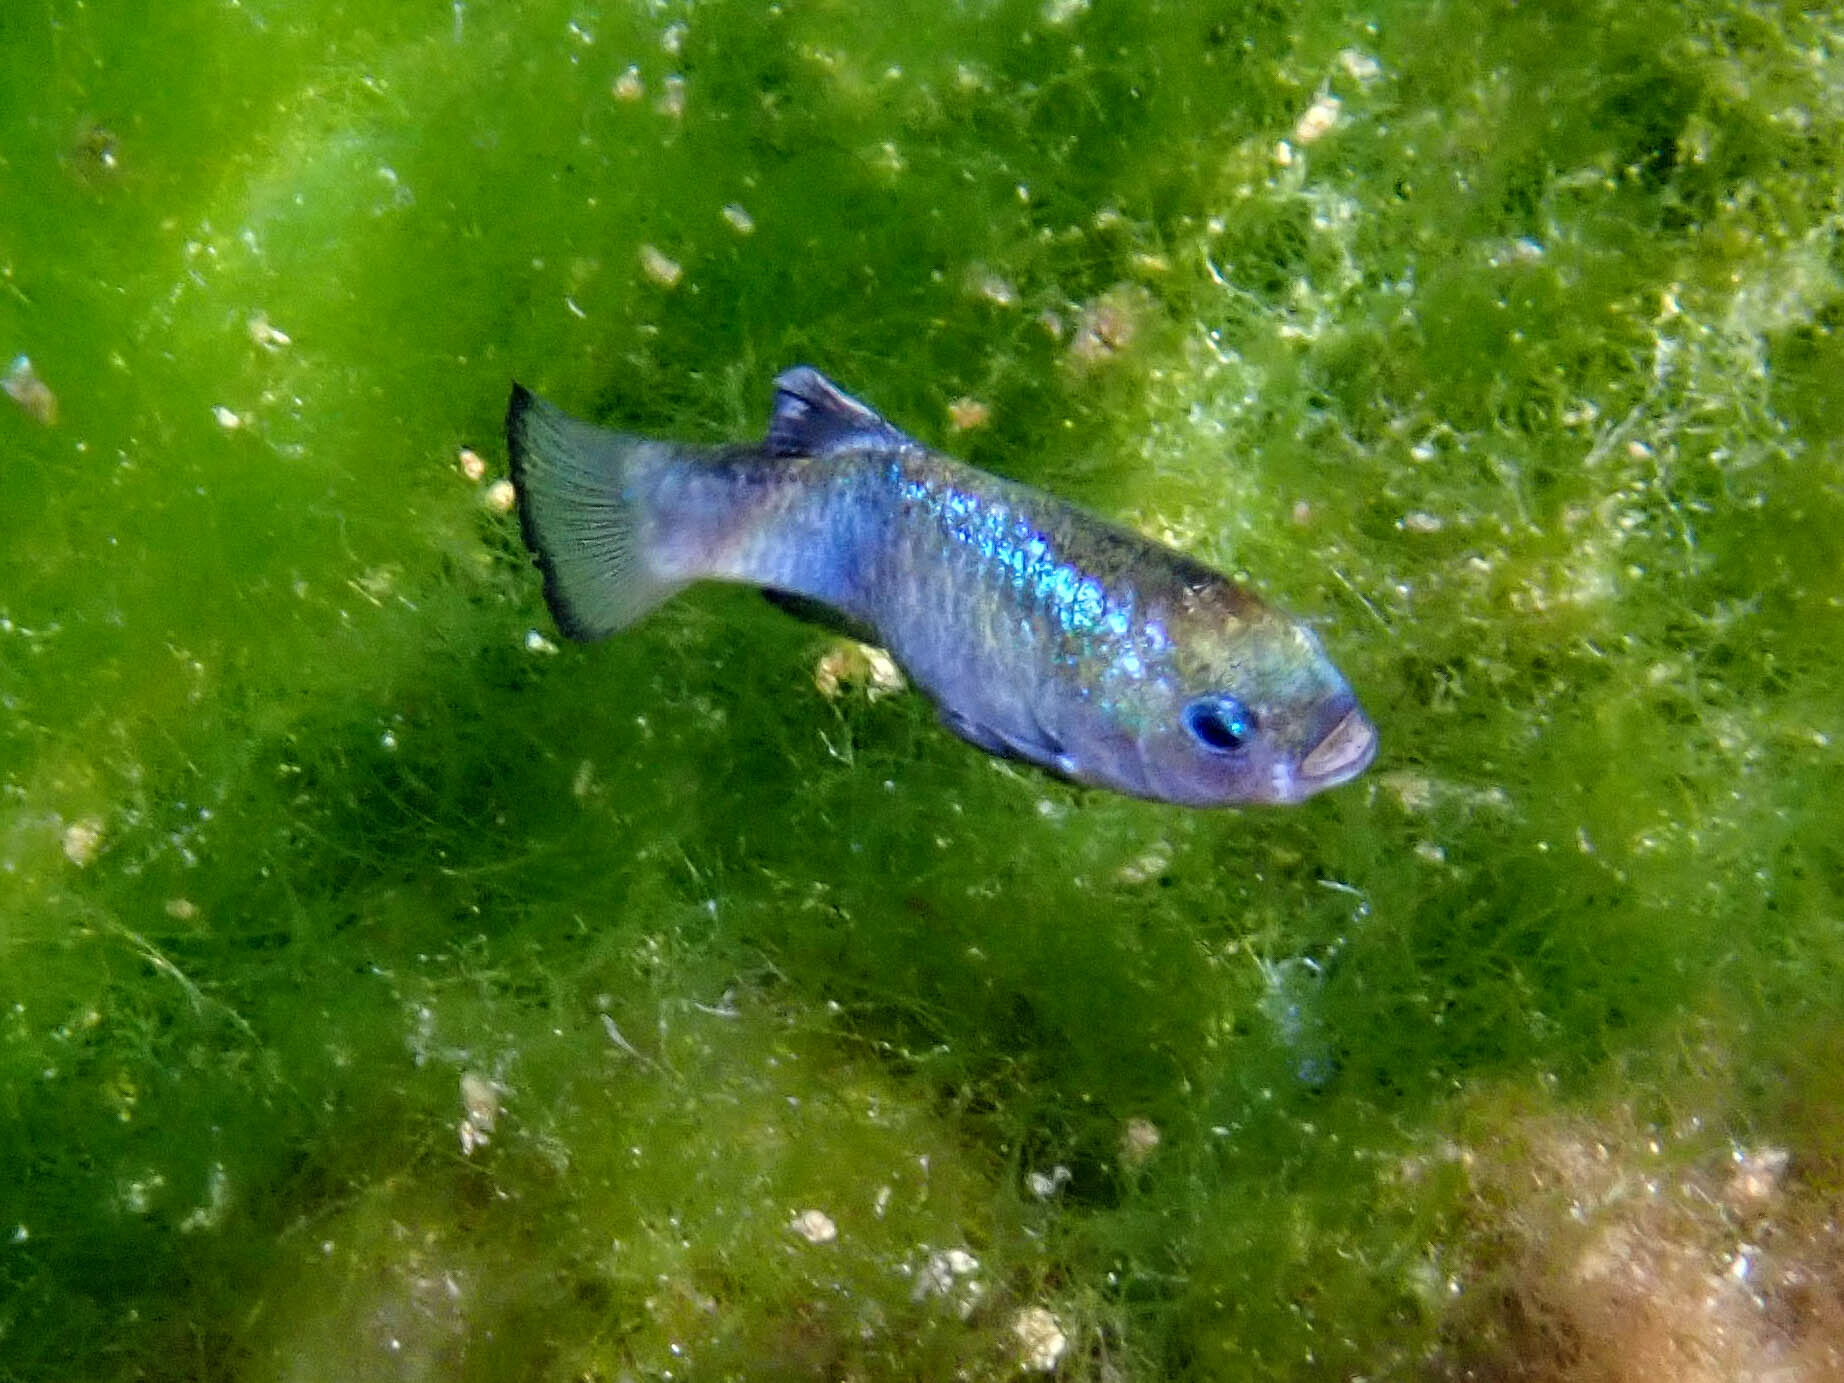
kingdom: Animalia
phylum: Chordata
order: Cyprinodontiformes
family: Cyprinodontidae
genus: Cyprinodon
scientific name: Cyprinodon nevadensis
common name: Amargosa pupfish
